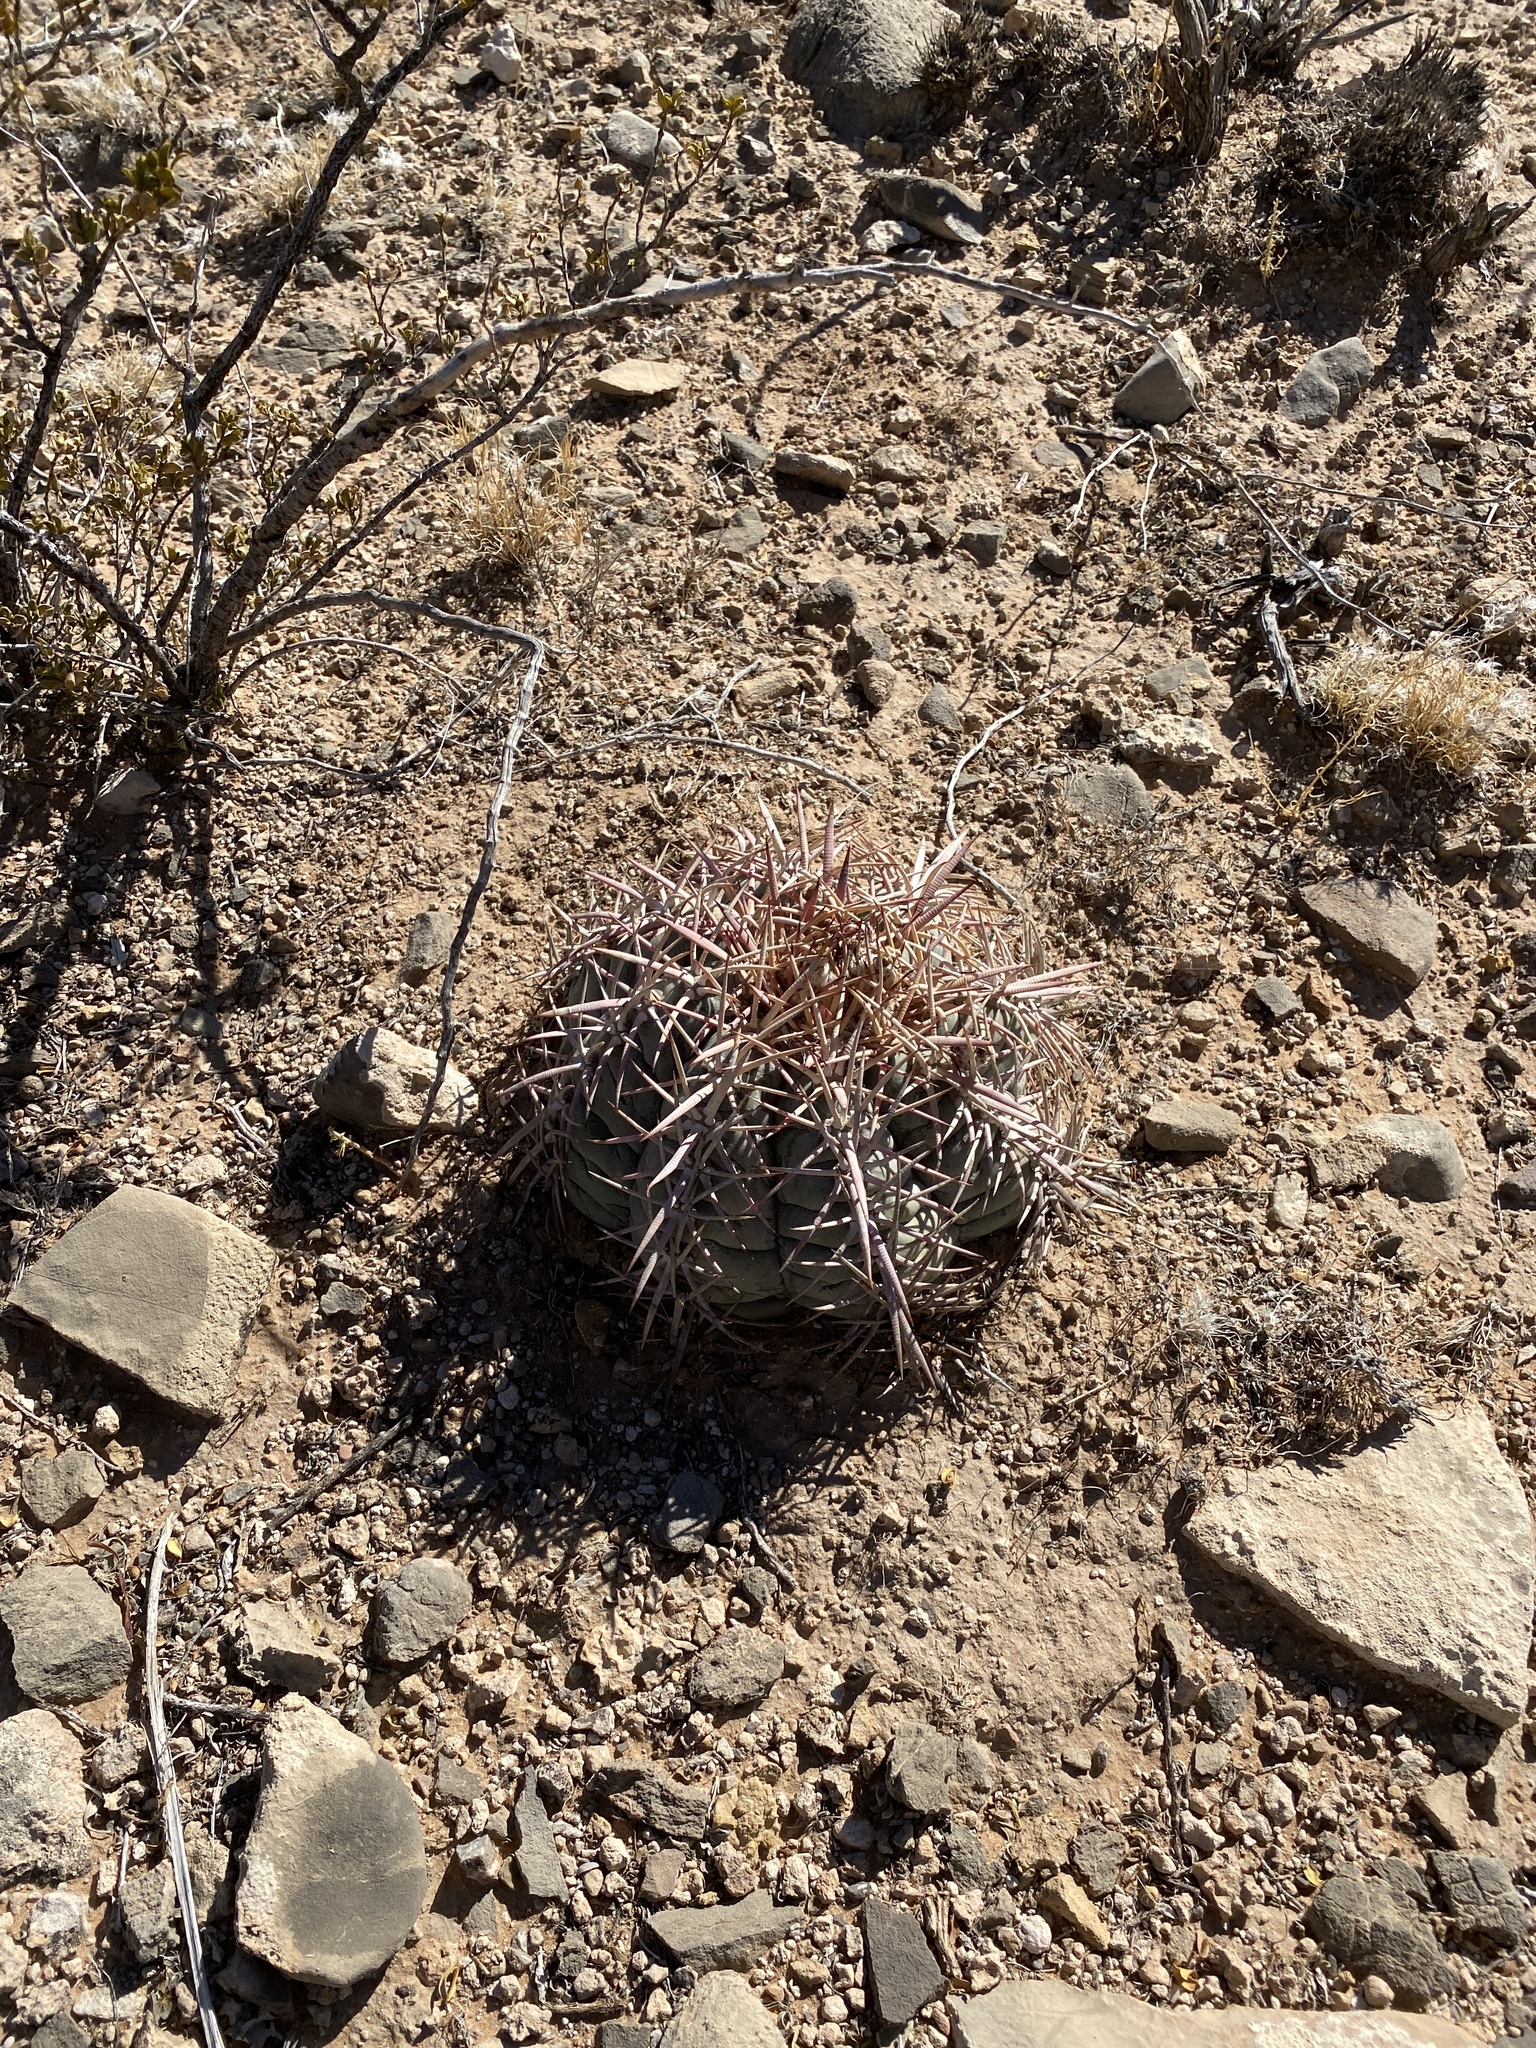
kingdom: Plantae
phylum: Tracheophyta
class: Magnoliopsida
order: Caryophyllales
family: Cactaceae
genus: Echinocactus
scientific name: Echinocactus horizonthalonius
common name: Devilshead
